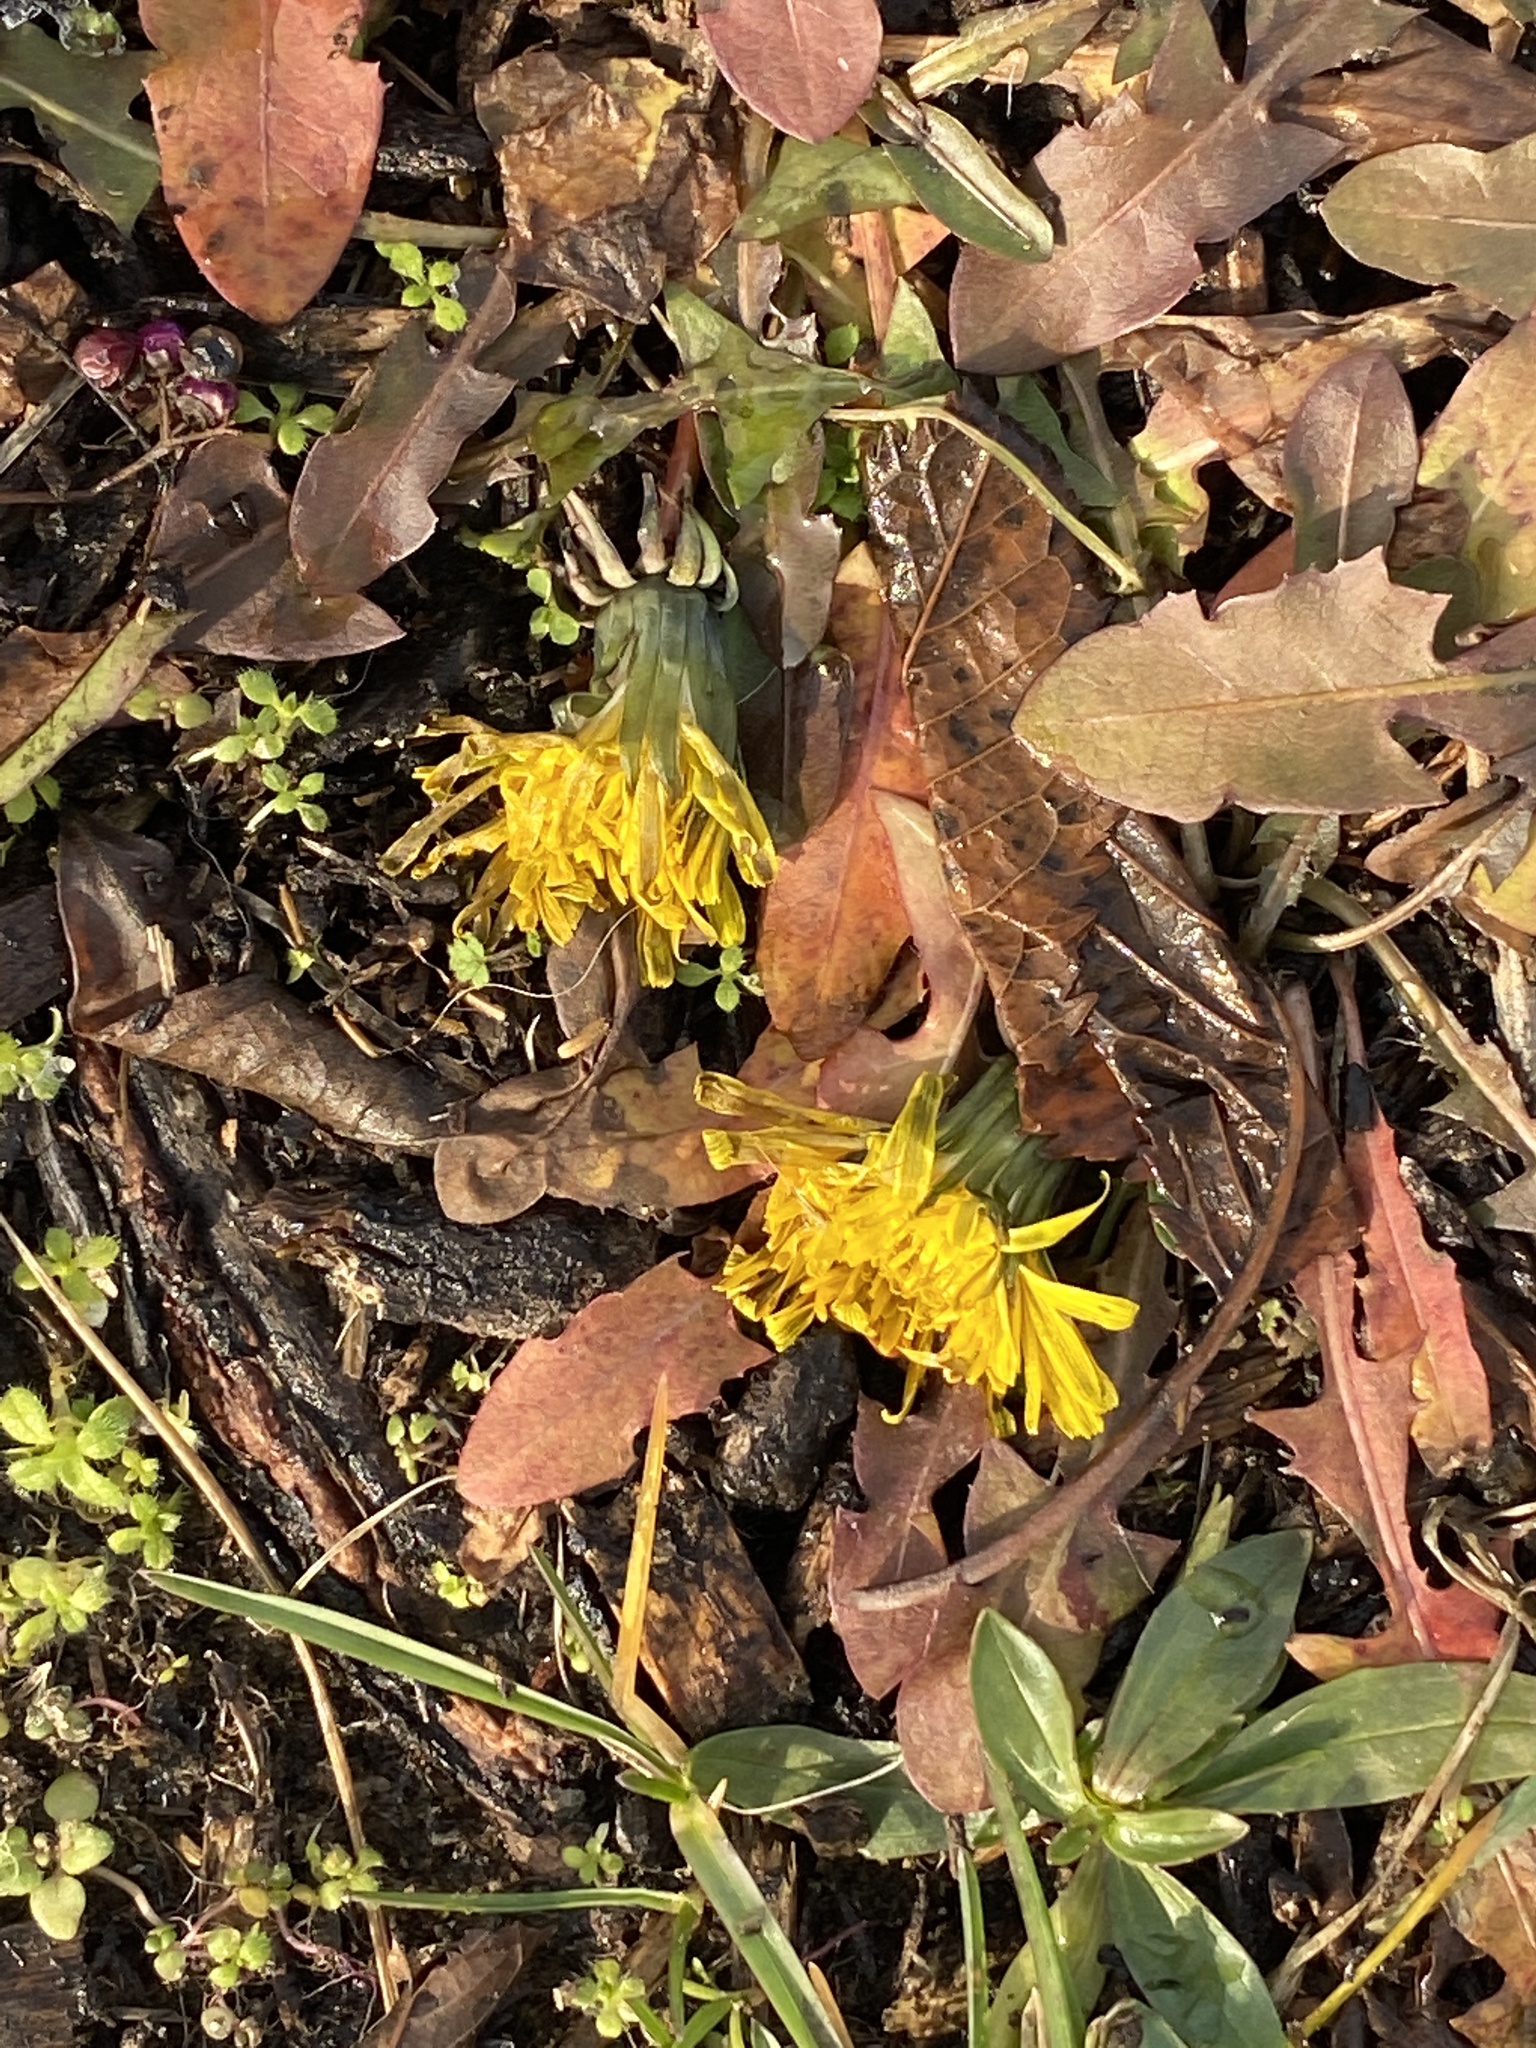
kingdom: Plantae
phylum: Tracheophyta
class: Magnoliopsida
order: Asterales
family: Asteraceae
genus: Taraxacum
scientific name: Taraxacum officinale
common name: Common dandelion
